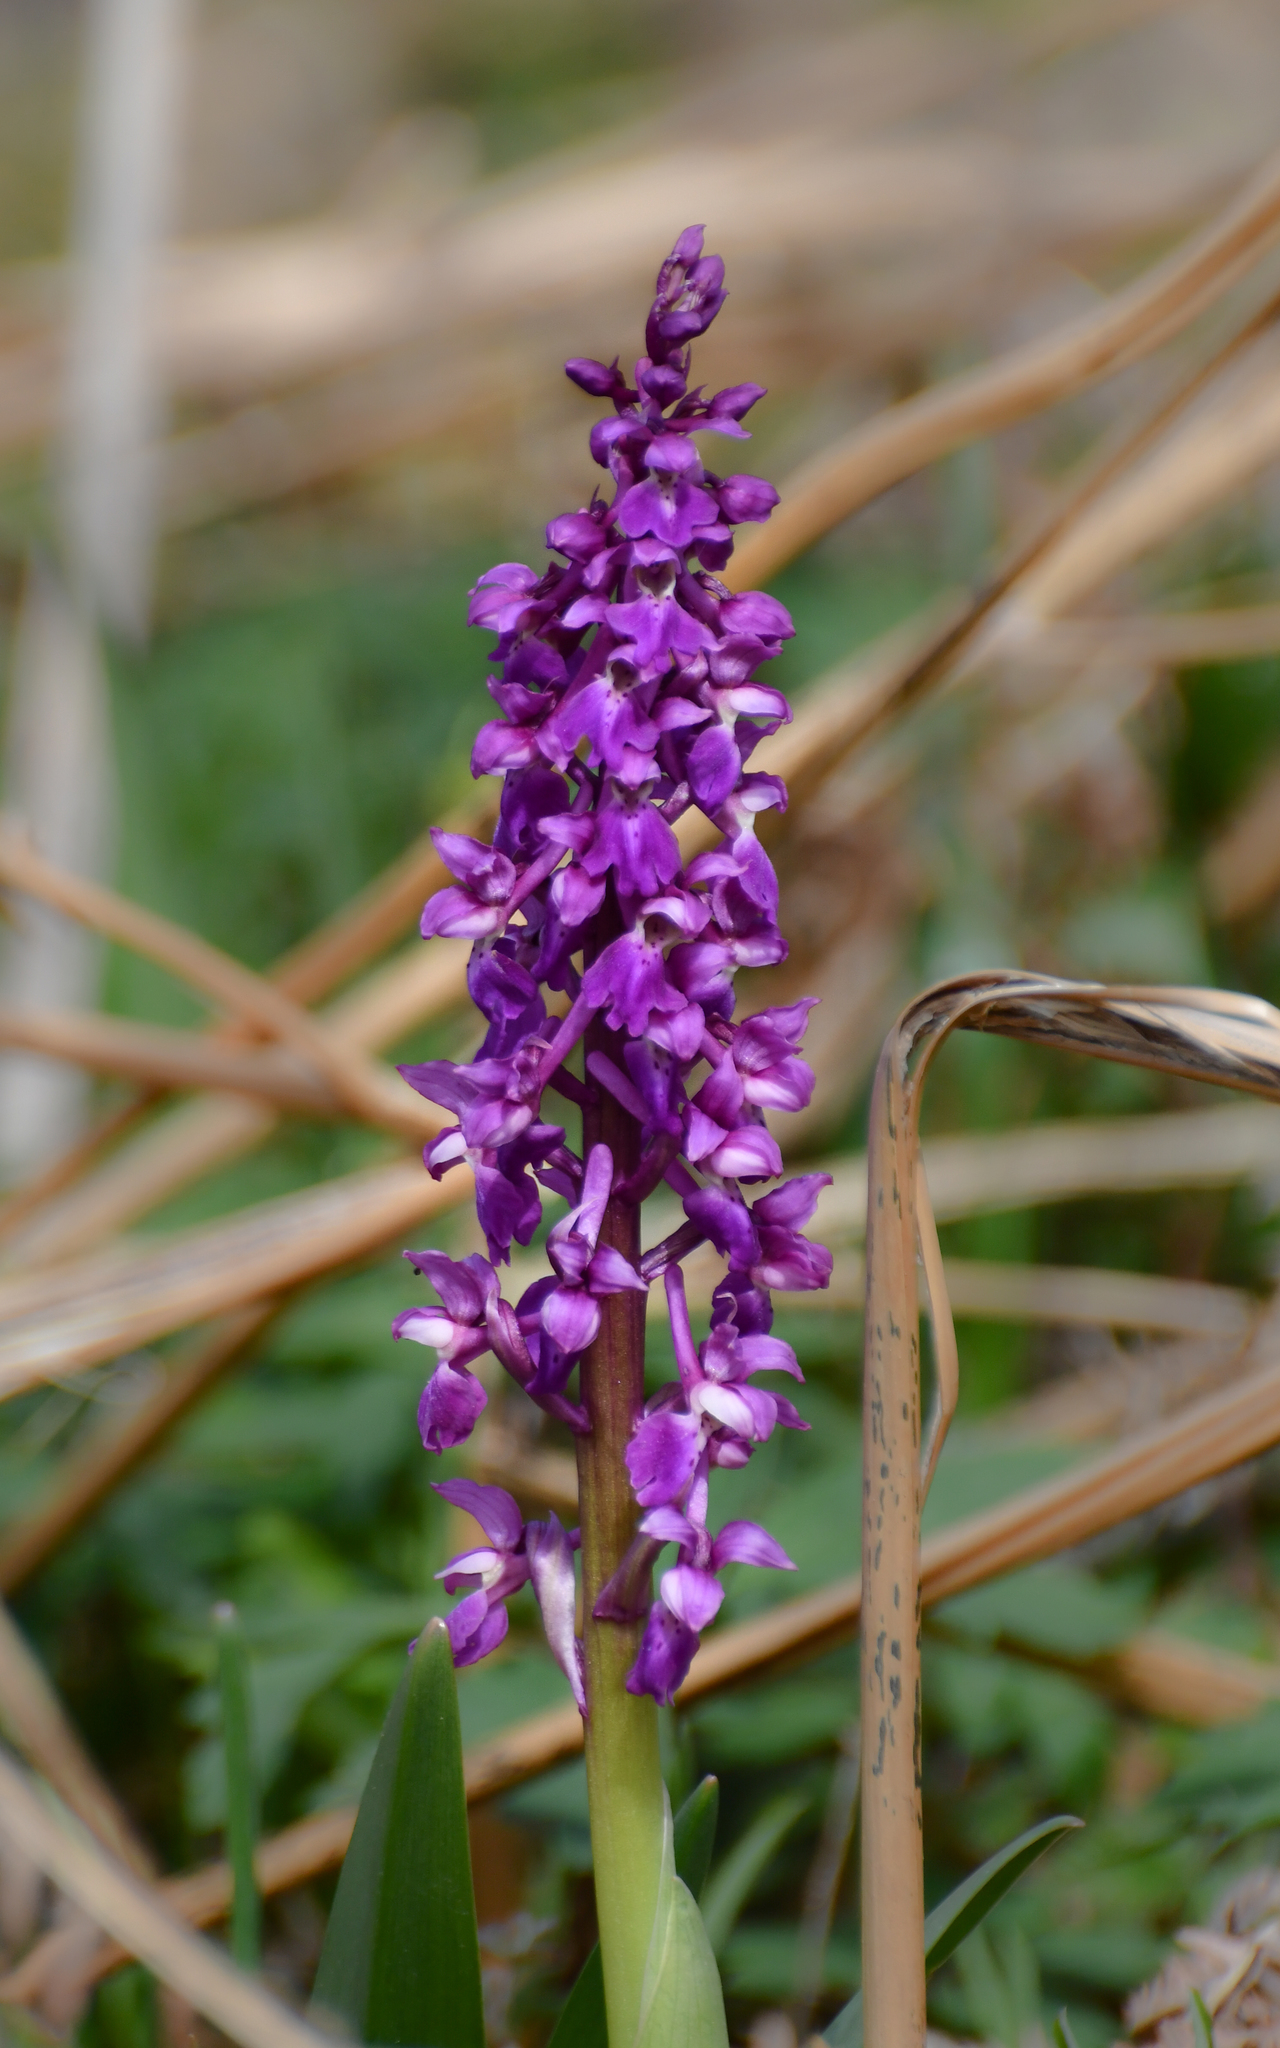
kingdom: Plantae
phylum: Tracheophyta
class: Liliopsida
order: Asparagales
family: Orchidaceae
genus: Orchis
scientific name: Orchis mascula
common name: Early-purple orchid
